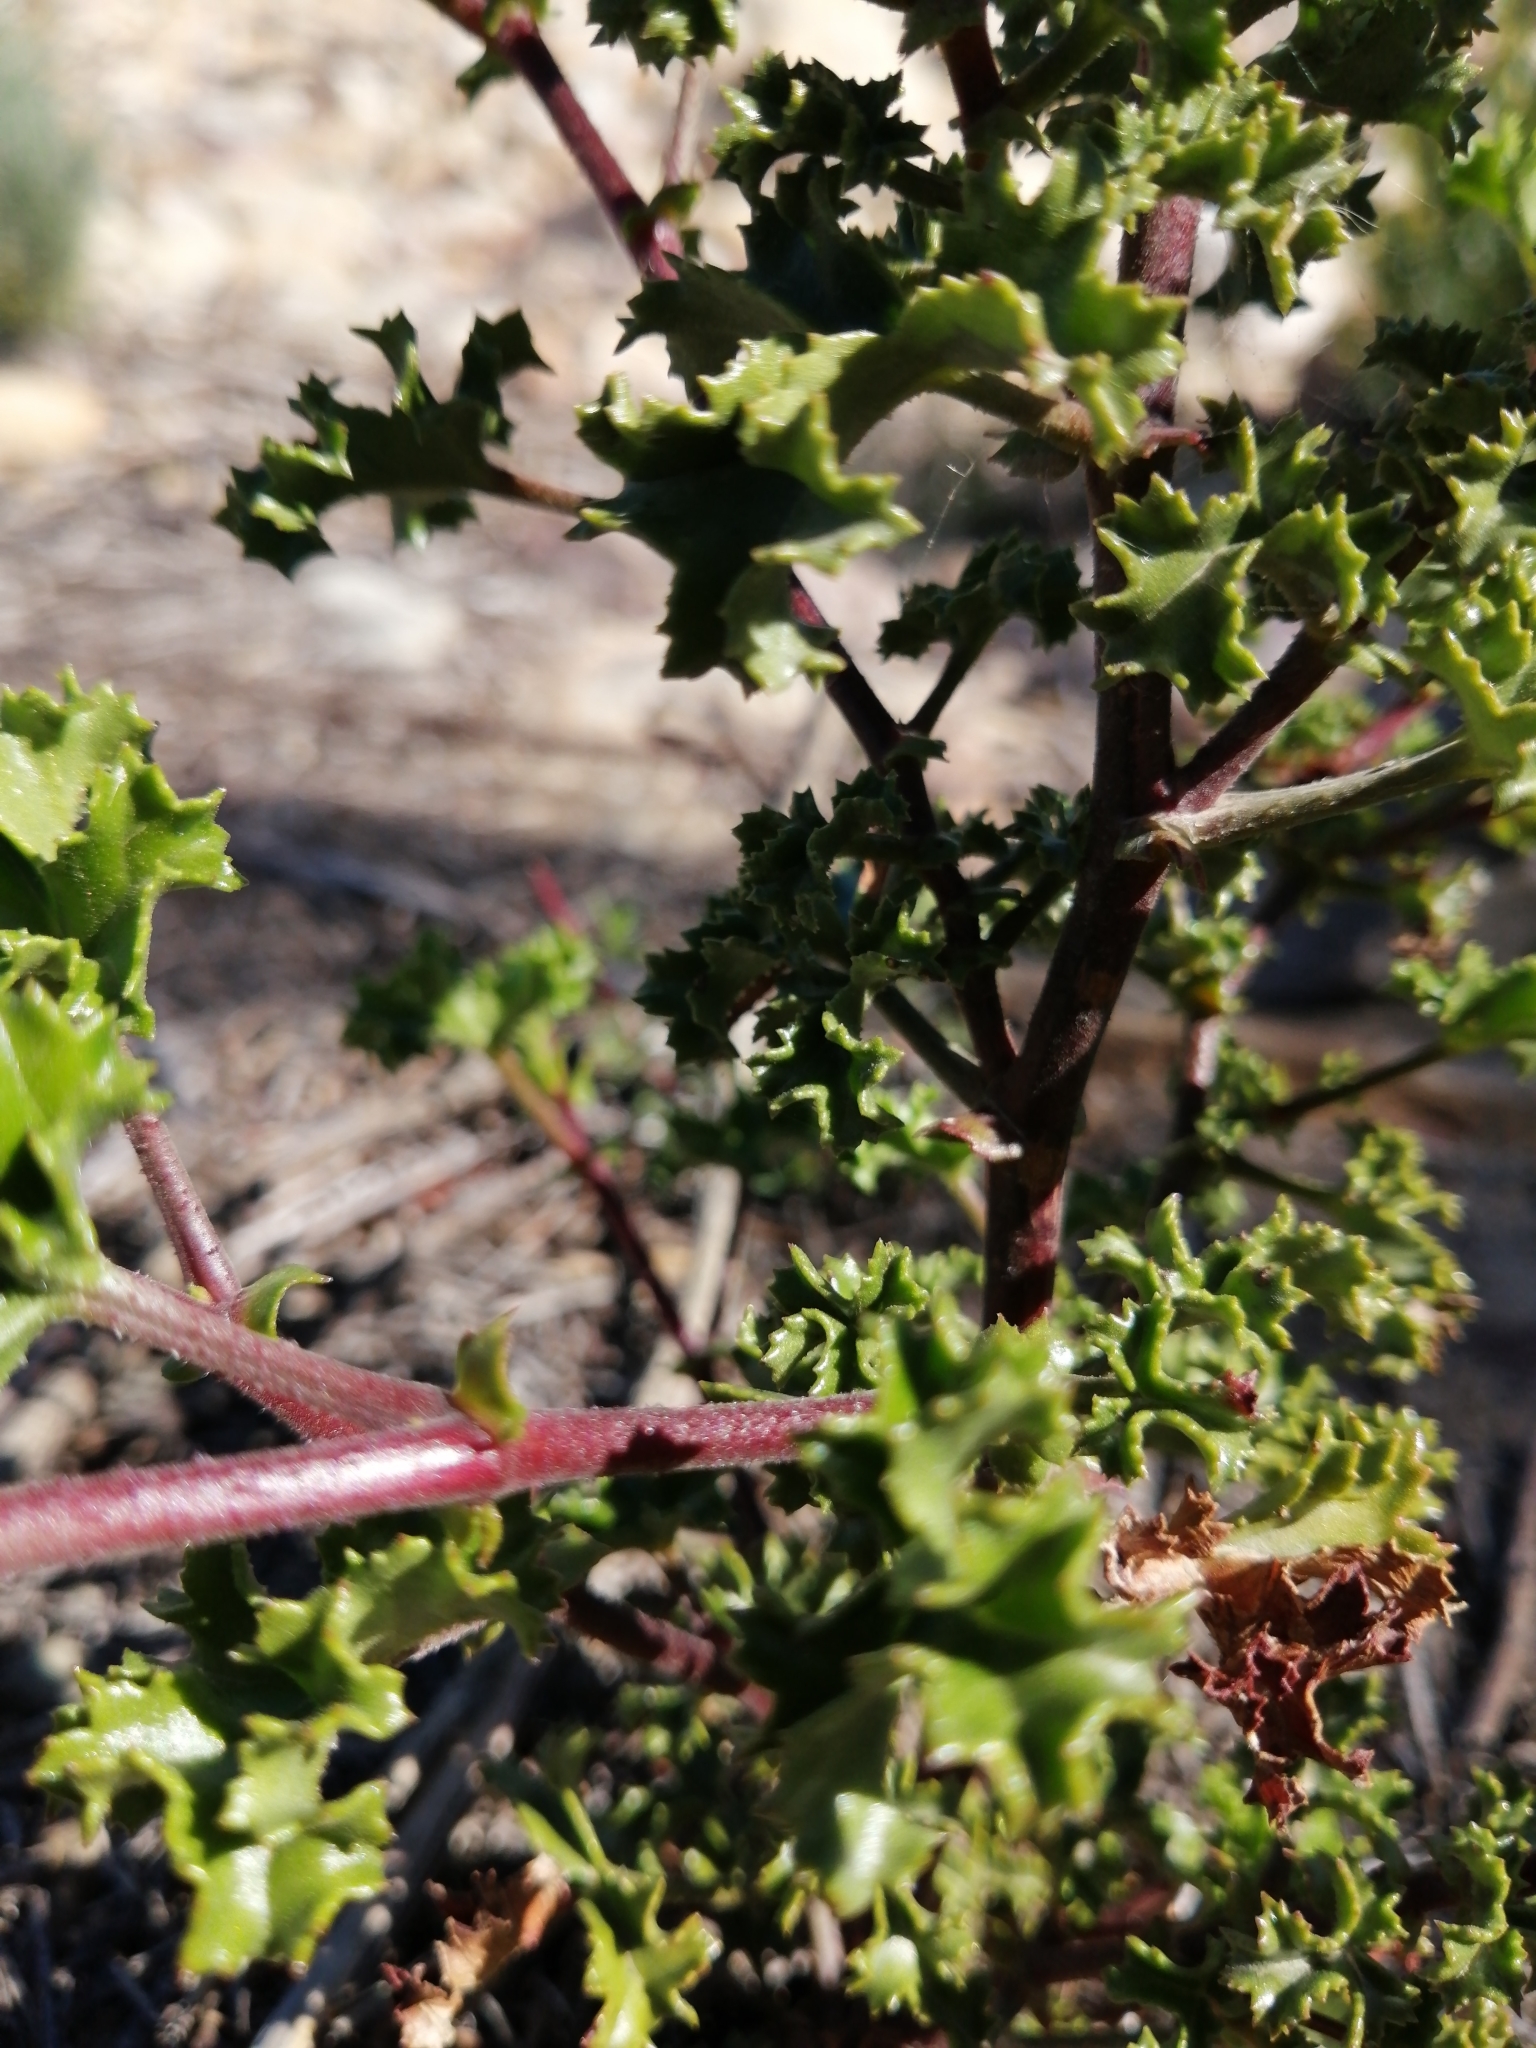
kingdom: Plantae
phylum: Tracheophyta
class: Magnoliopsida
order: Geraniales
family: Geraniaceae
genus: Pelargonium
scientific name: Pelargonium englerianum
